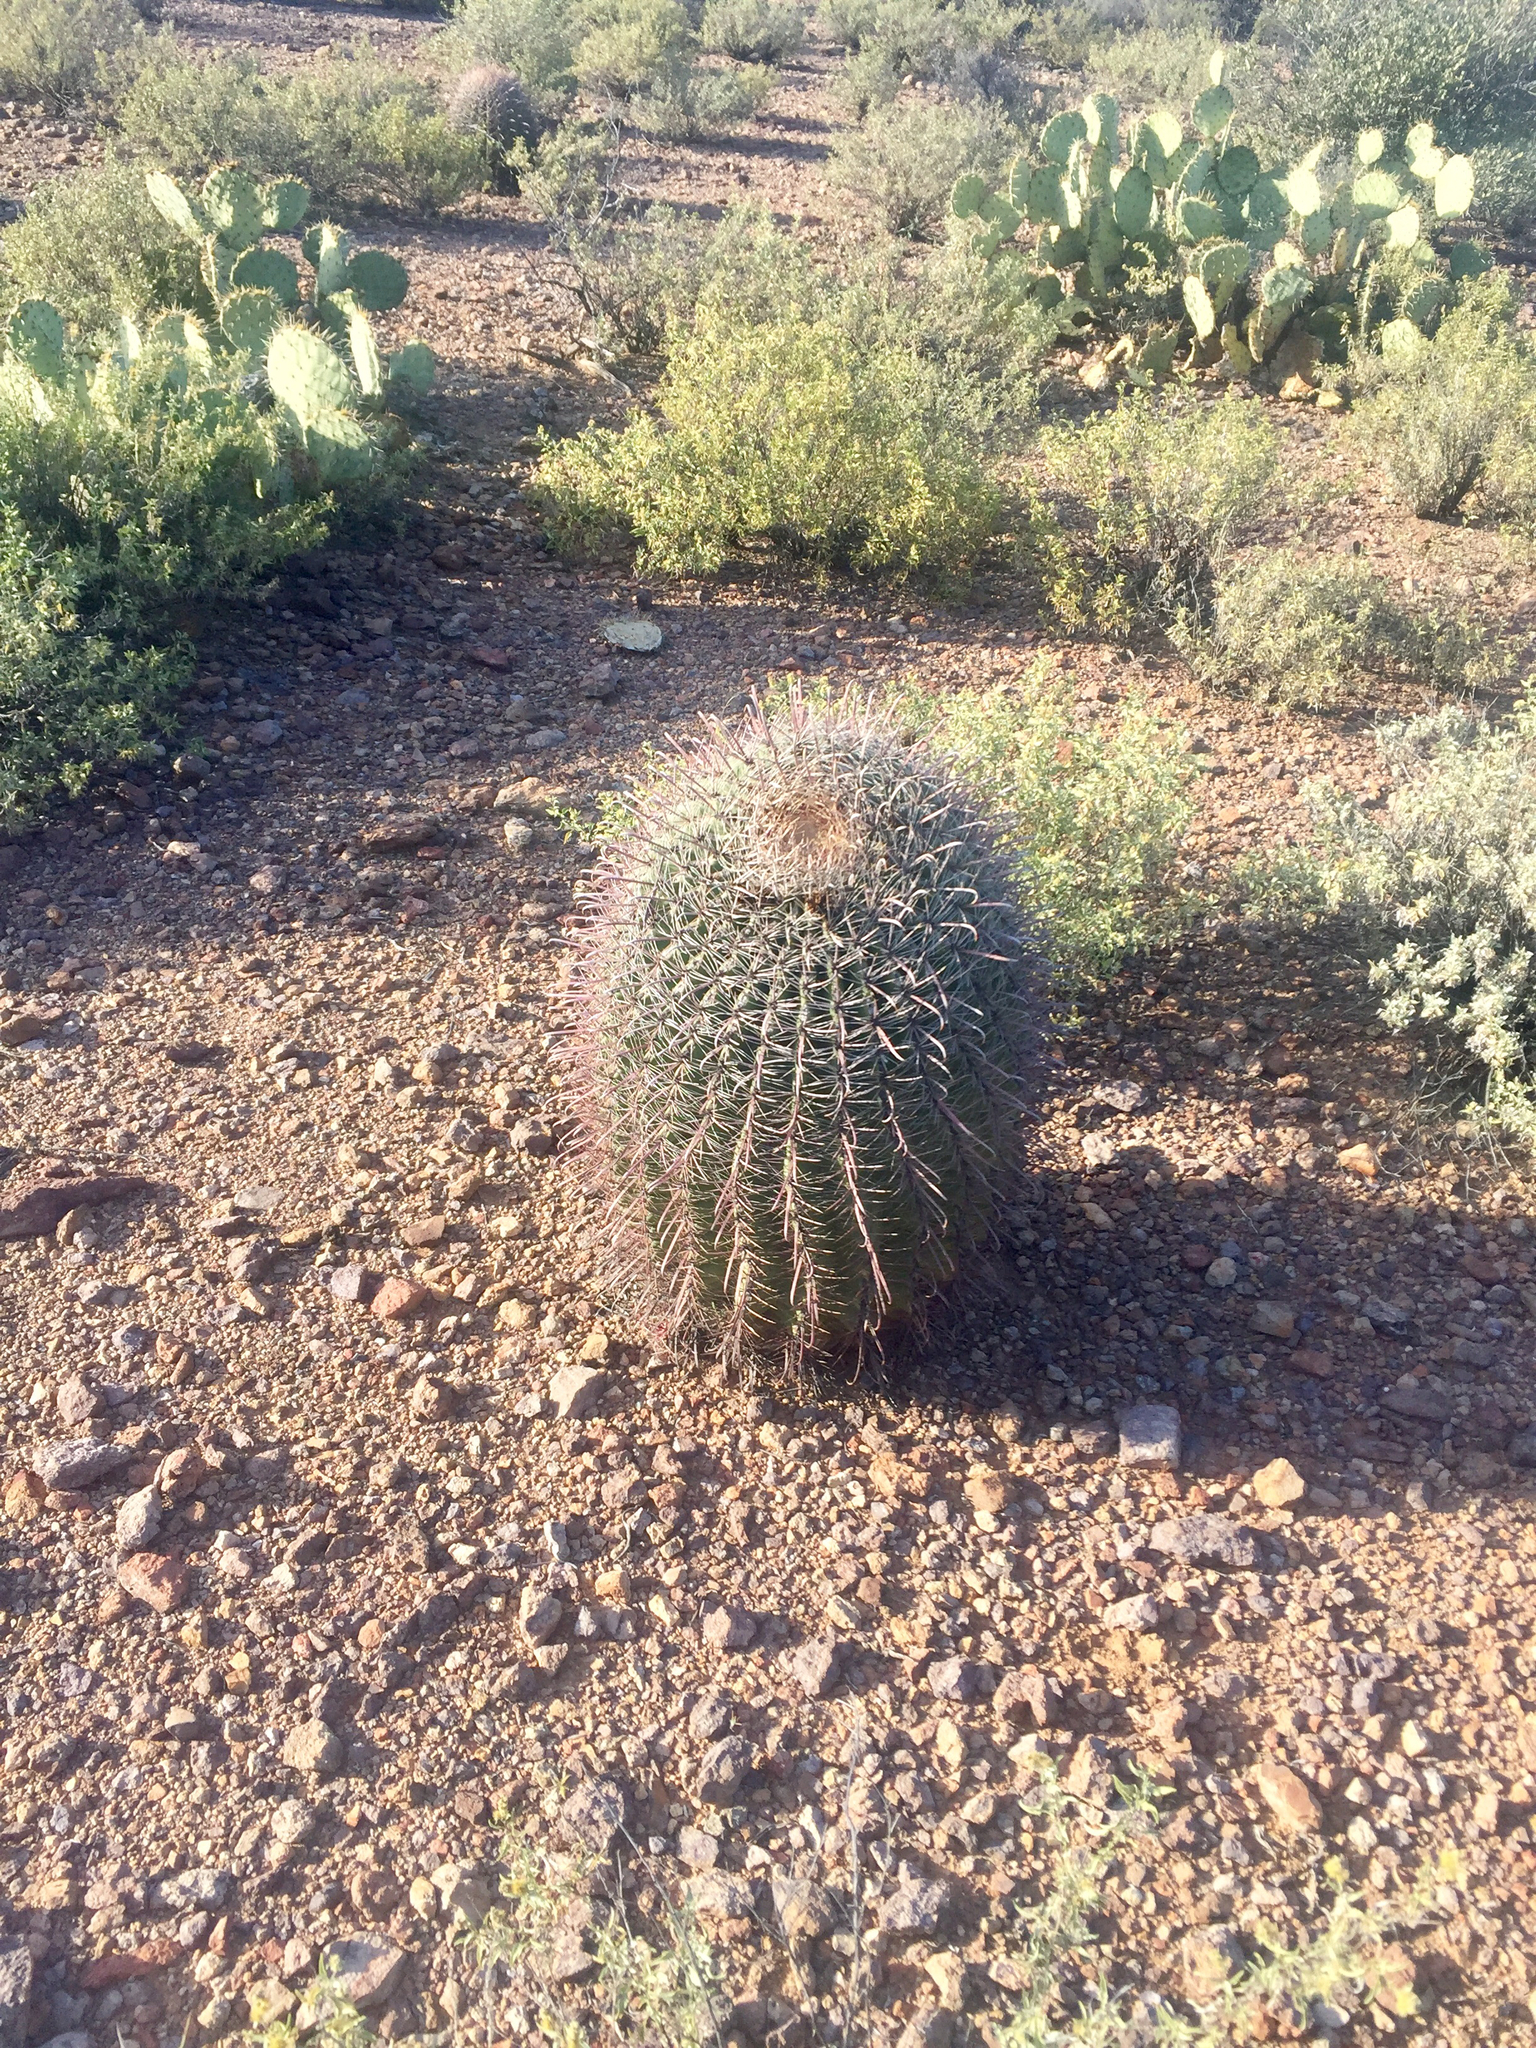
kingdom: Plantae
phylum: Tracheophyta
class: Magnoliopsida
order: Caryophyllales
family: Cactaceae
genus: Ferocactus
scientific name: Ferocactus wislizeni
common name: Candy barrel cactus
